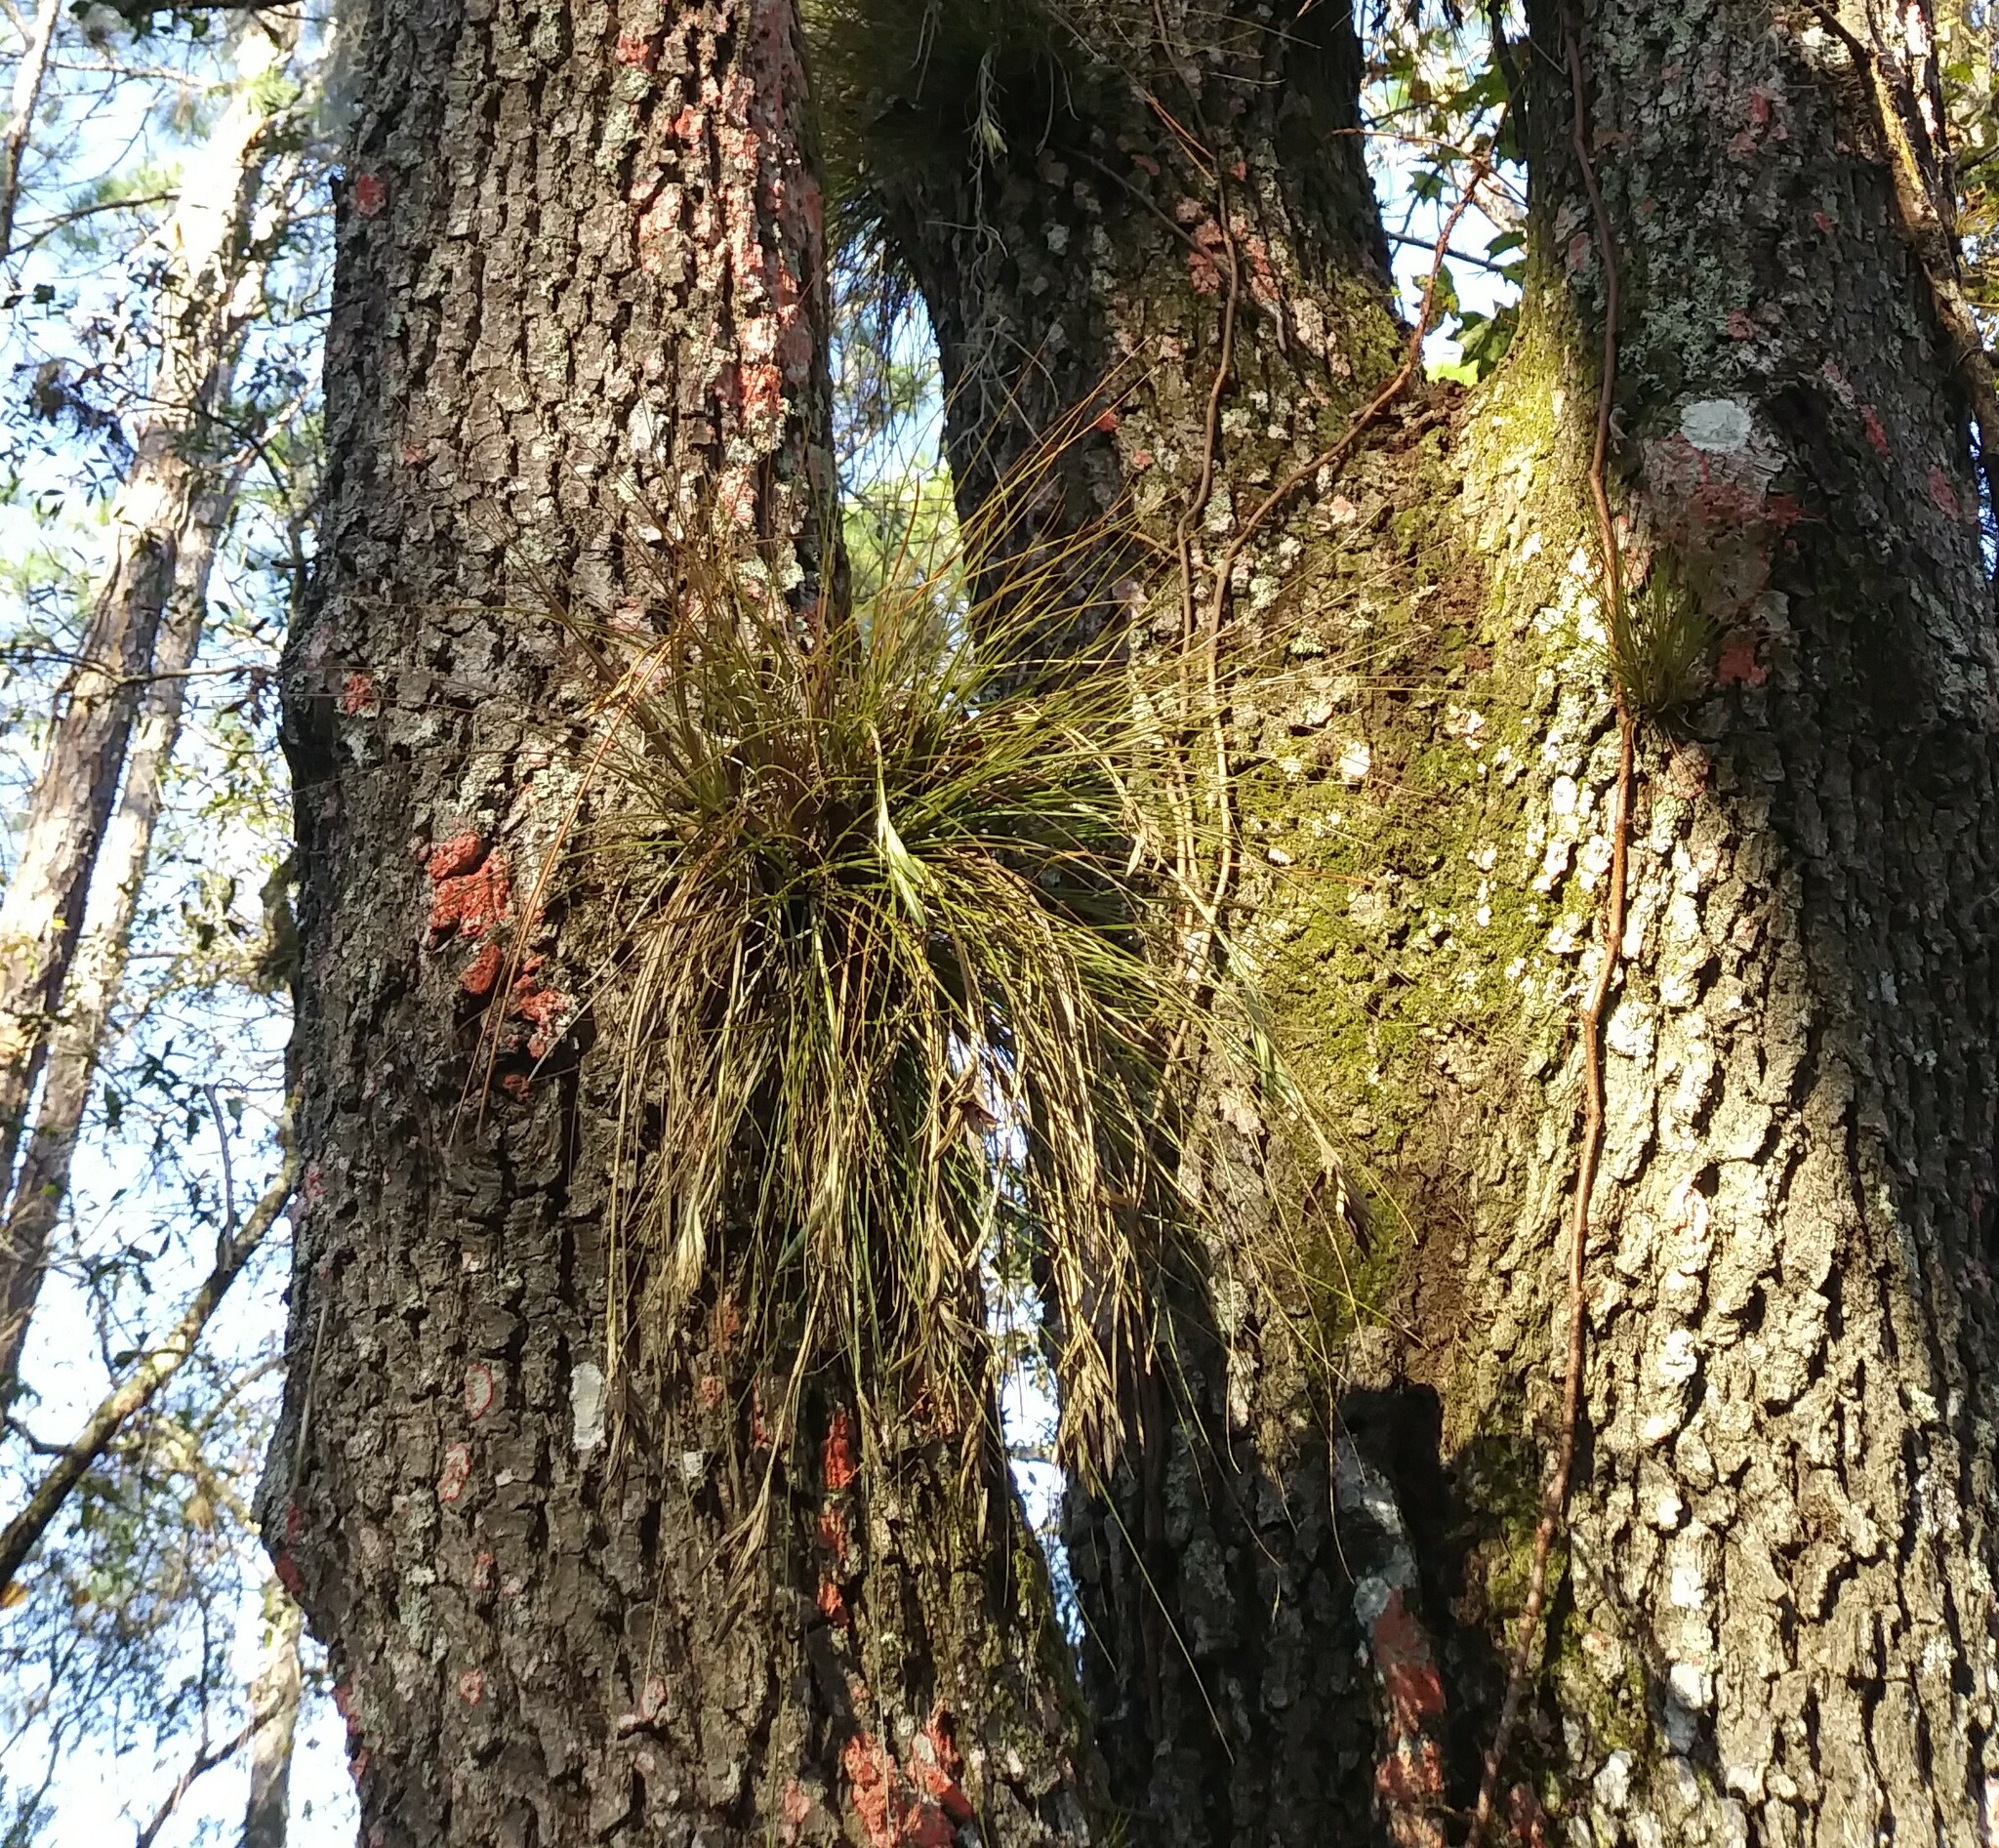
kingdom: Plantae
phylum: Tracheophyta
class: Liliopsida
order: Poales
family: Bromeliaceae
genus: Tillandsia
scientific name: Tillandsia setacea
